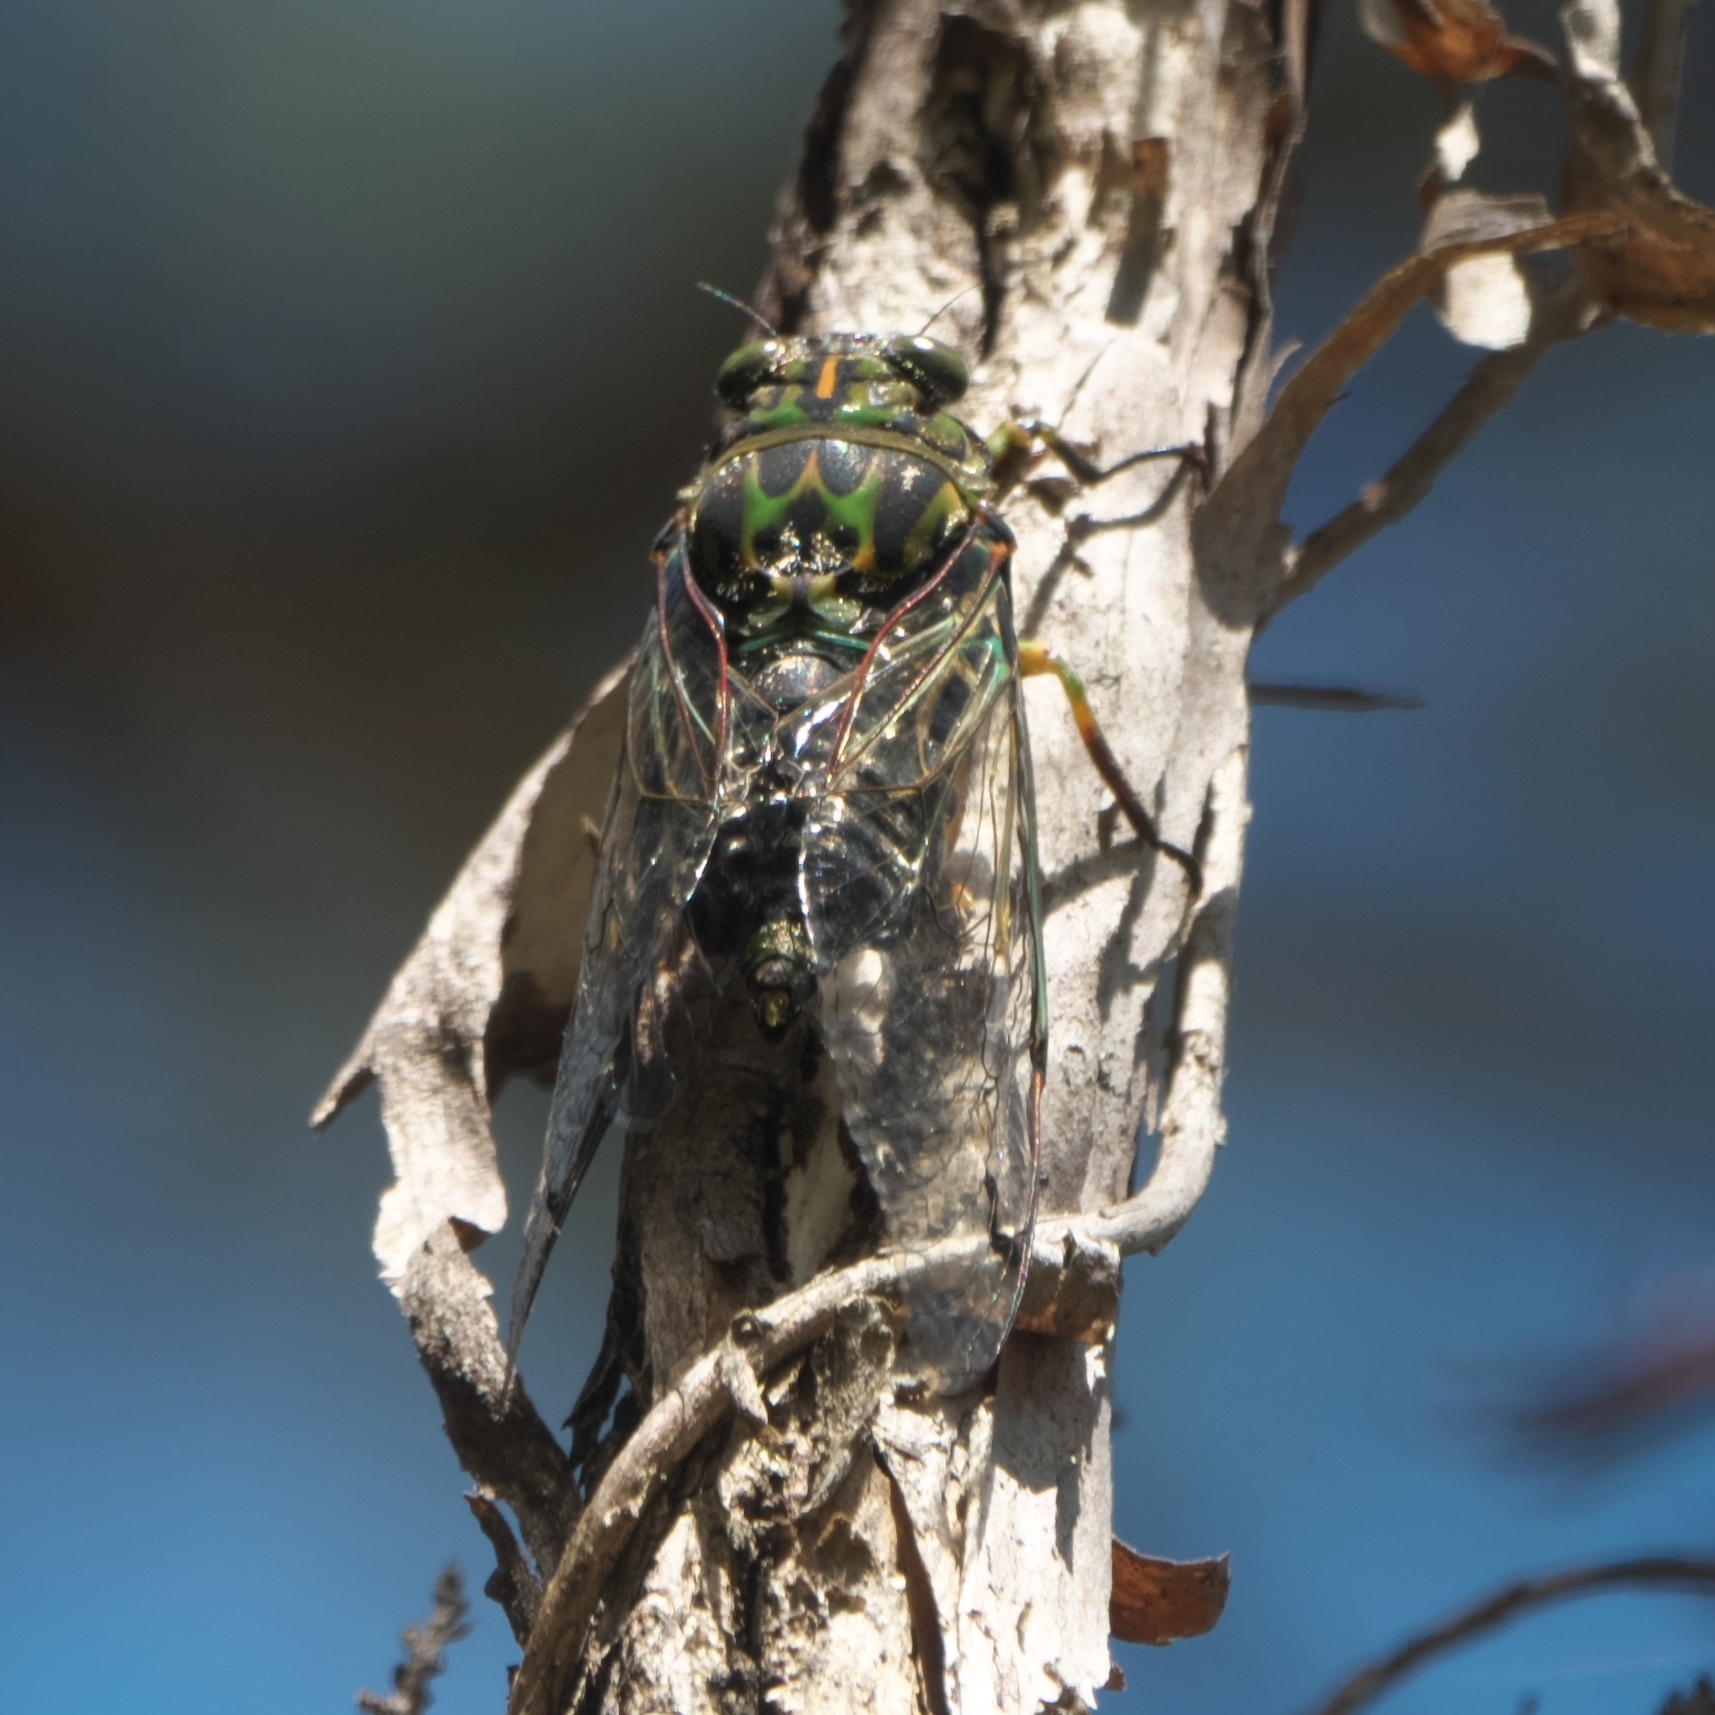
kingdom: Animalia
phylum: Arthropoda
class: Insecta
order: Hemiptera
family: Cicadidae
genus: Amphipsalta
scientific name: Amphipsalta zelandica
